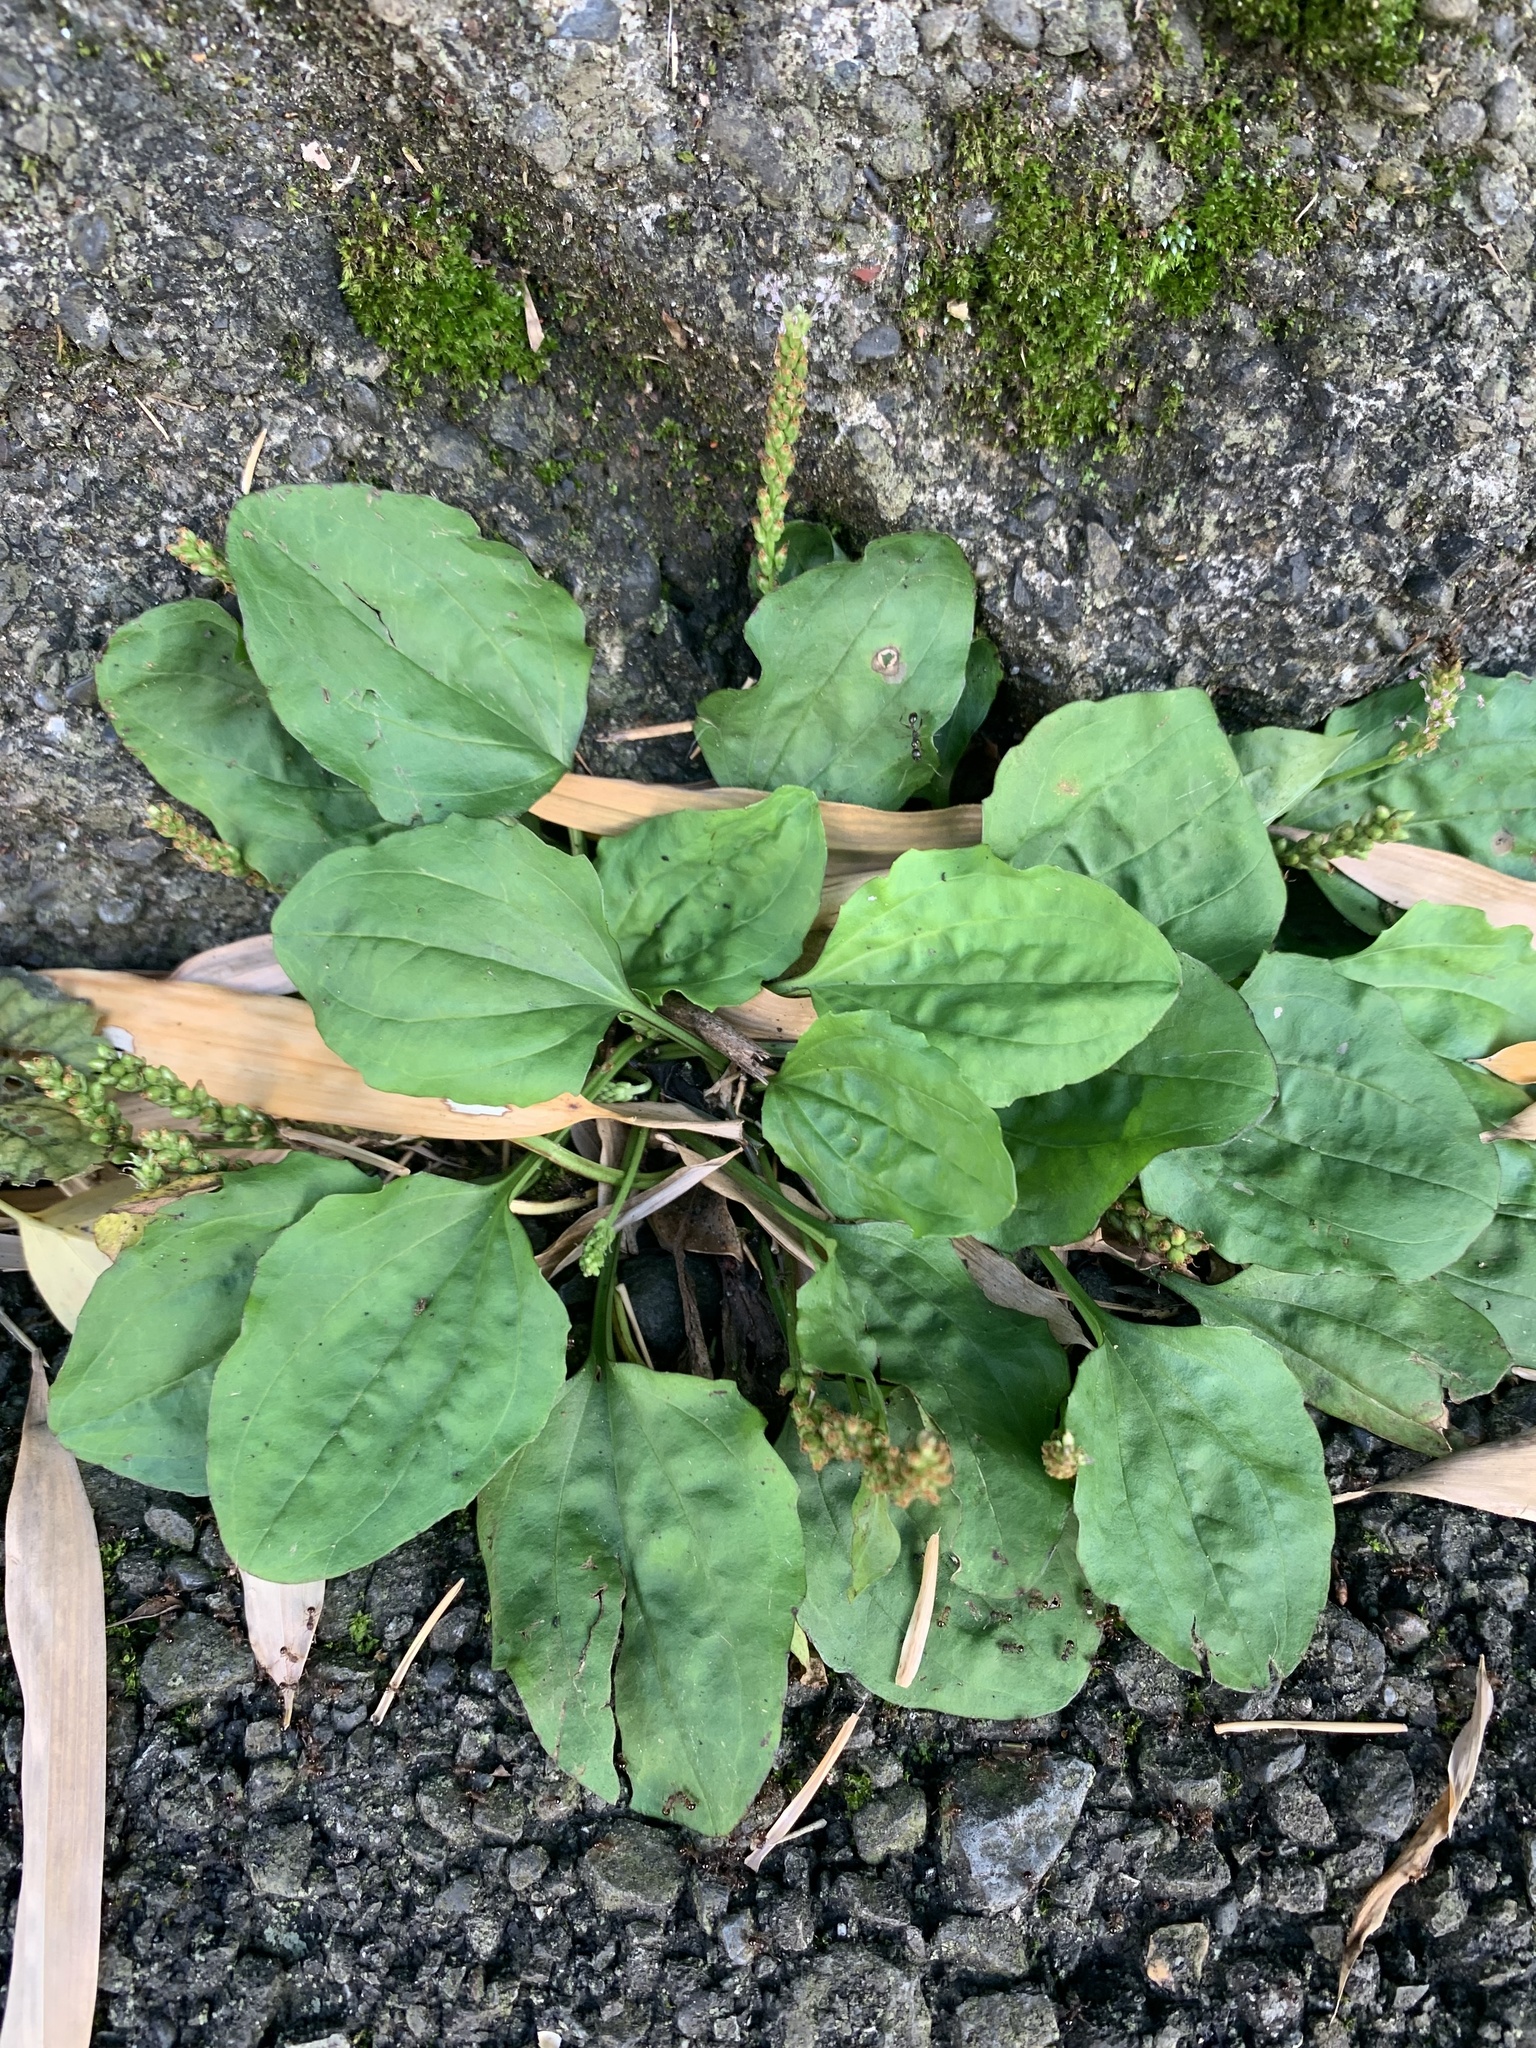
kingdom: Plantae
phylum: Tracheophyta
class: Magnoliopsida
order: Lamiales
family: Plantaginaceae
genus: Plantago
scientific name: Plantago asiatica
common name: Psyllium
